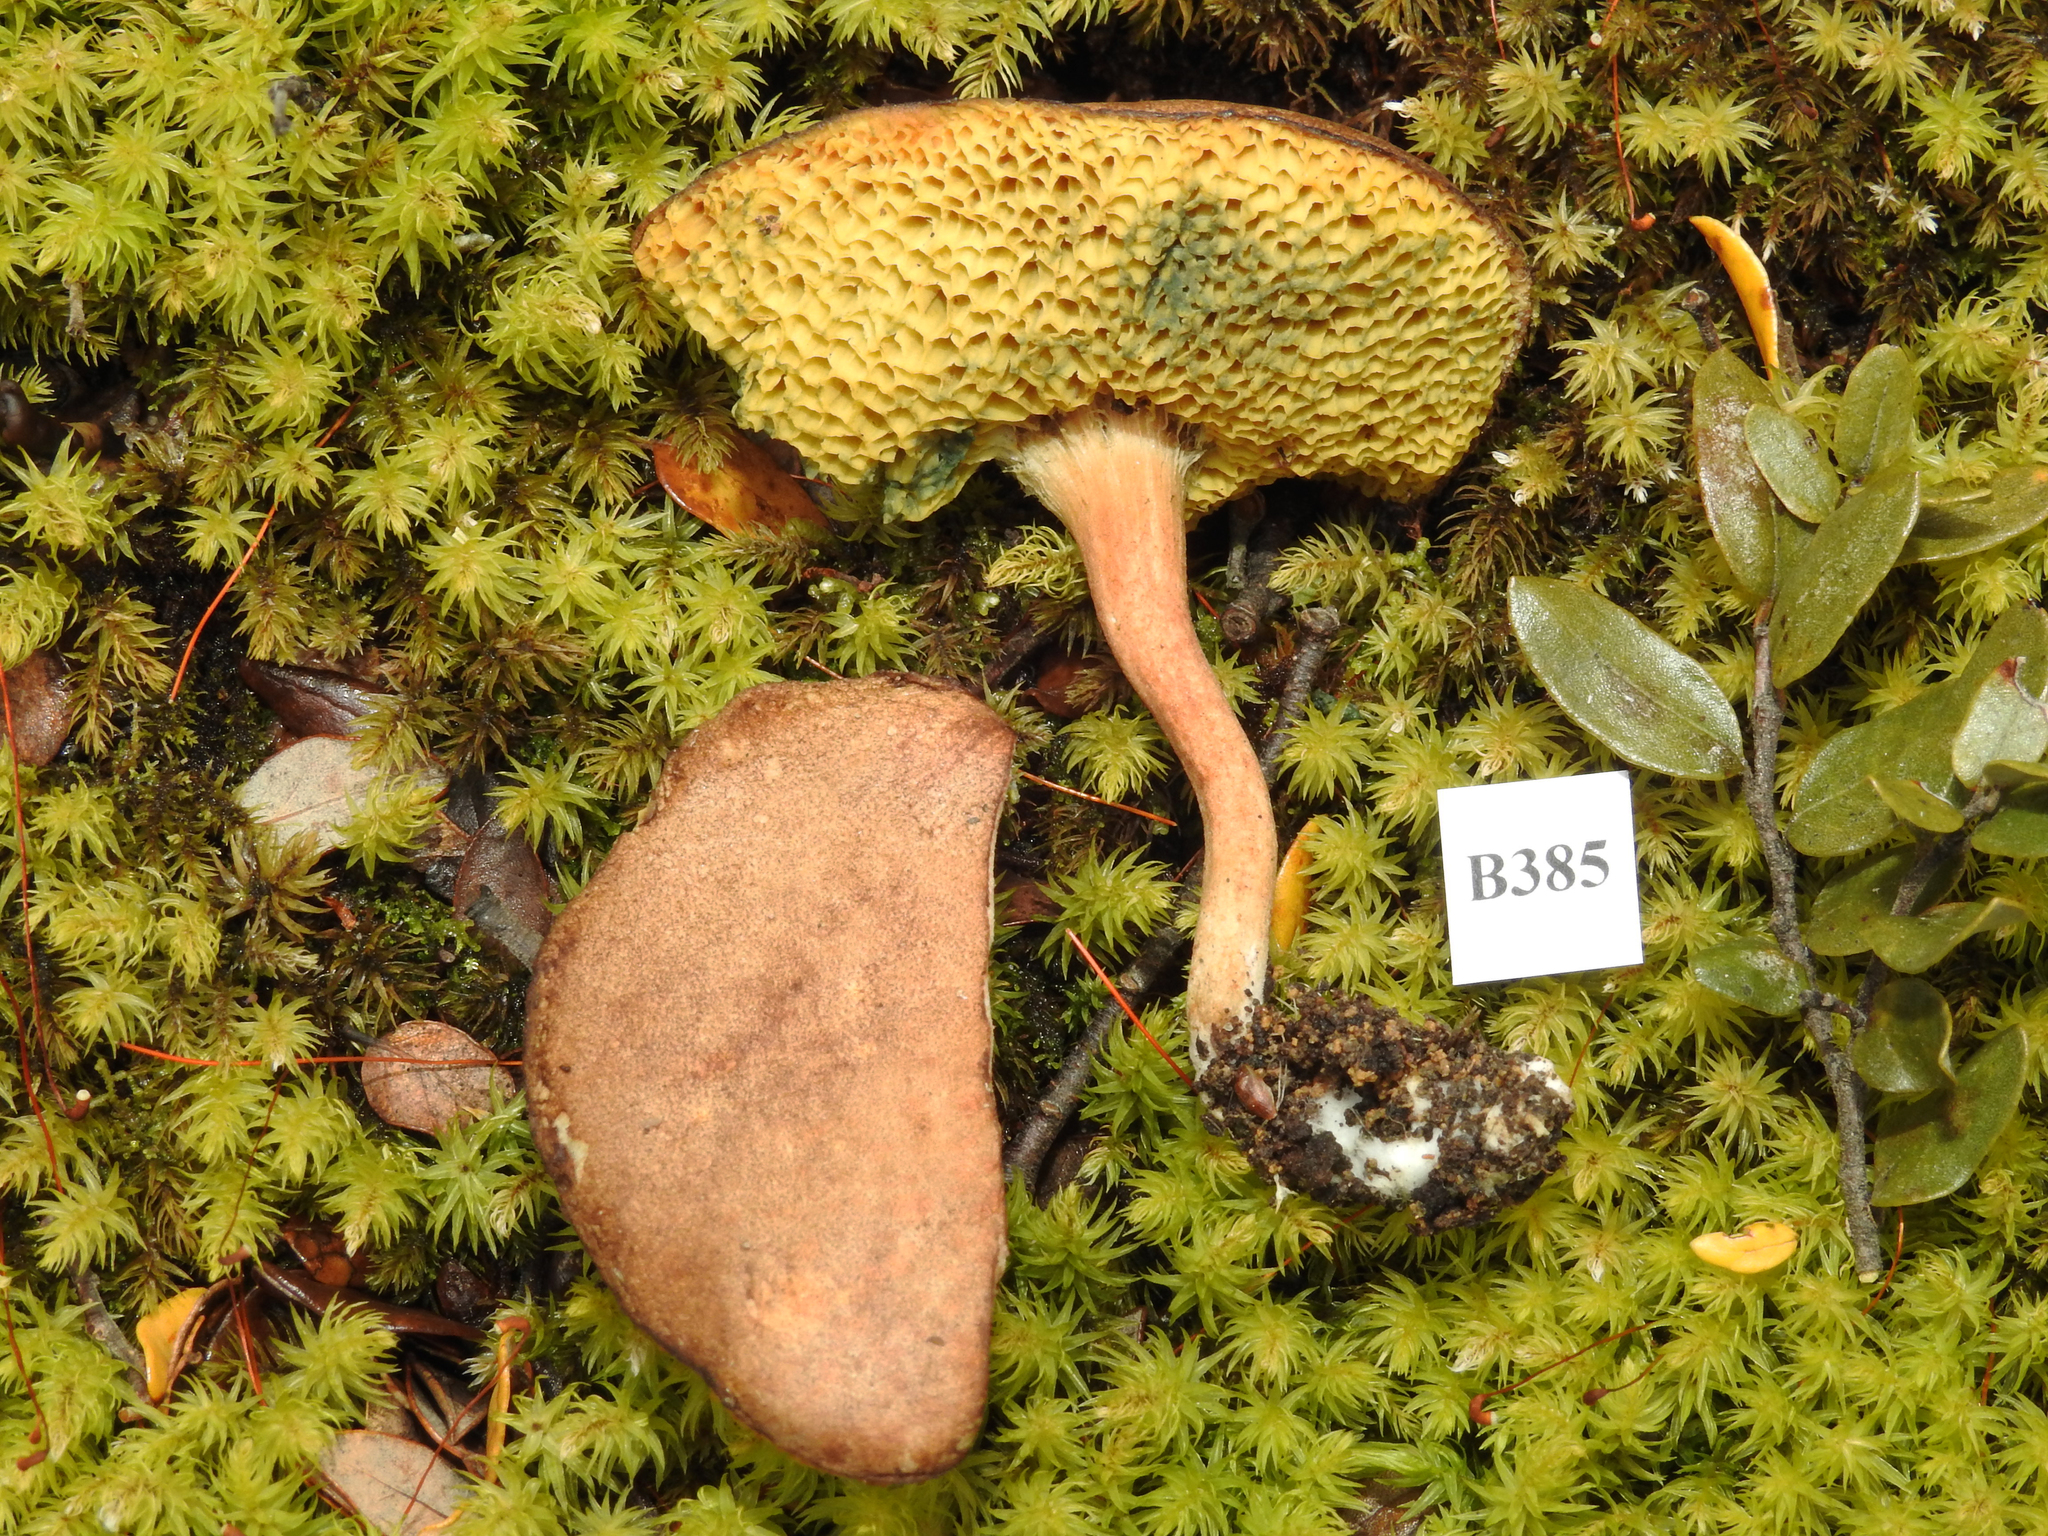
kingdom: Fungi
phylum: Basidiomycota
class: Agaricomycetes
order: Boletales
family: Boletaceae
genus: Xerocomus
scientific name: Xerocomus squamulosus
